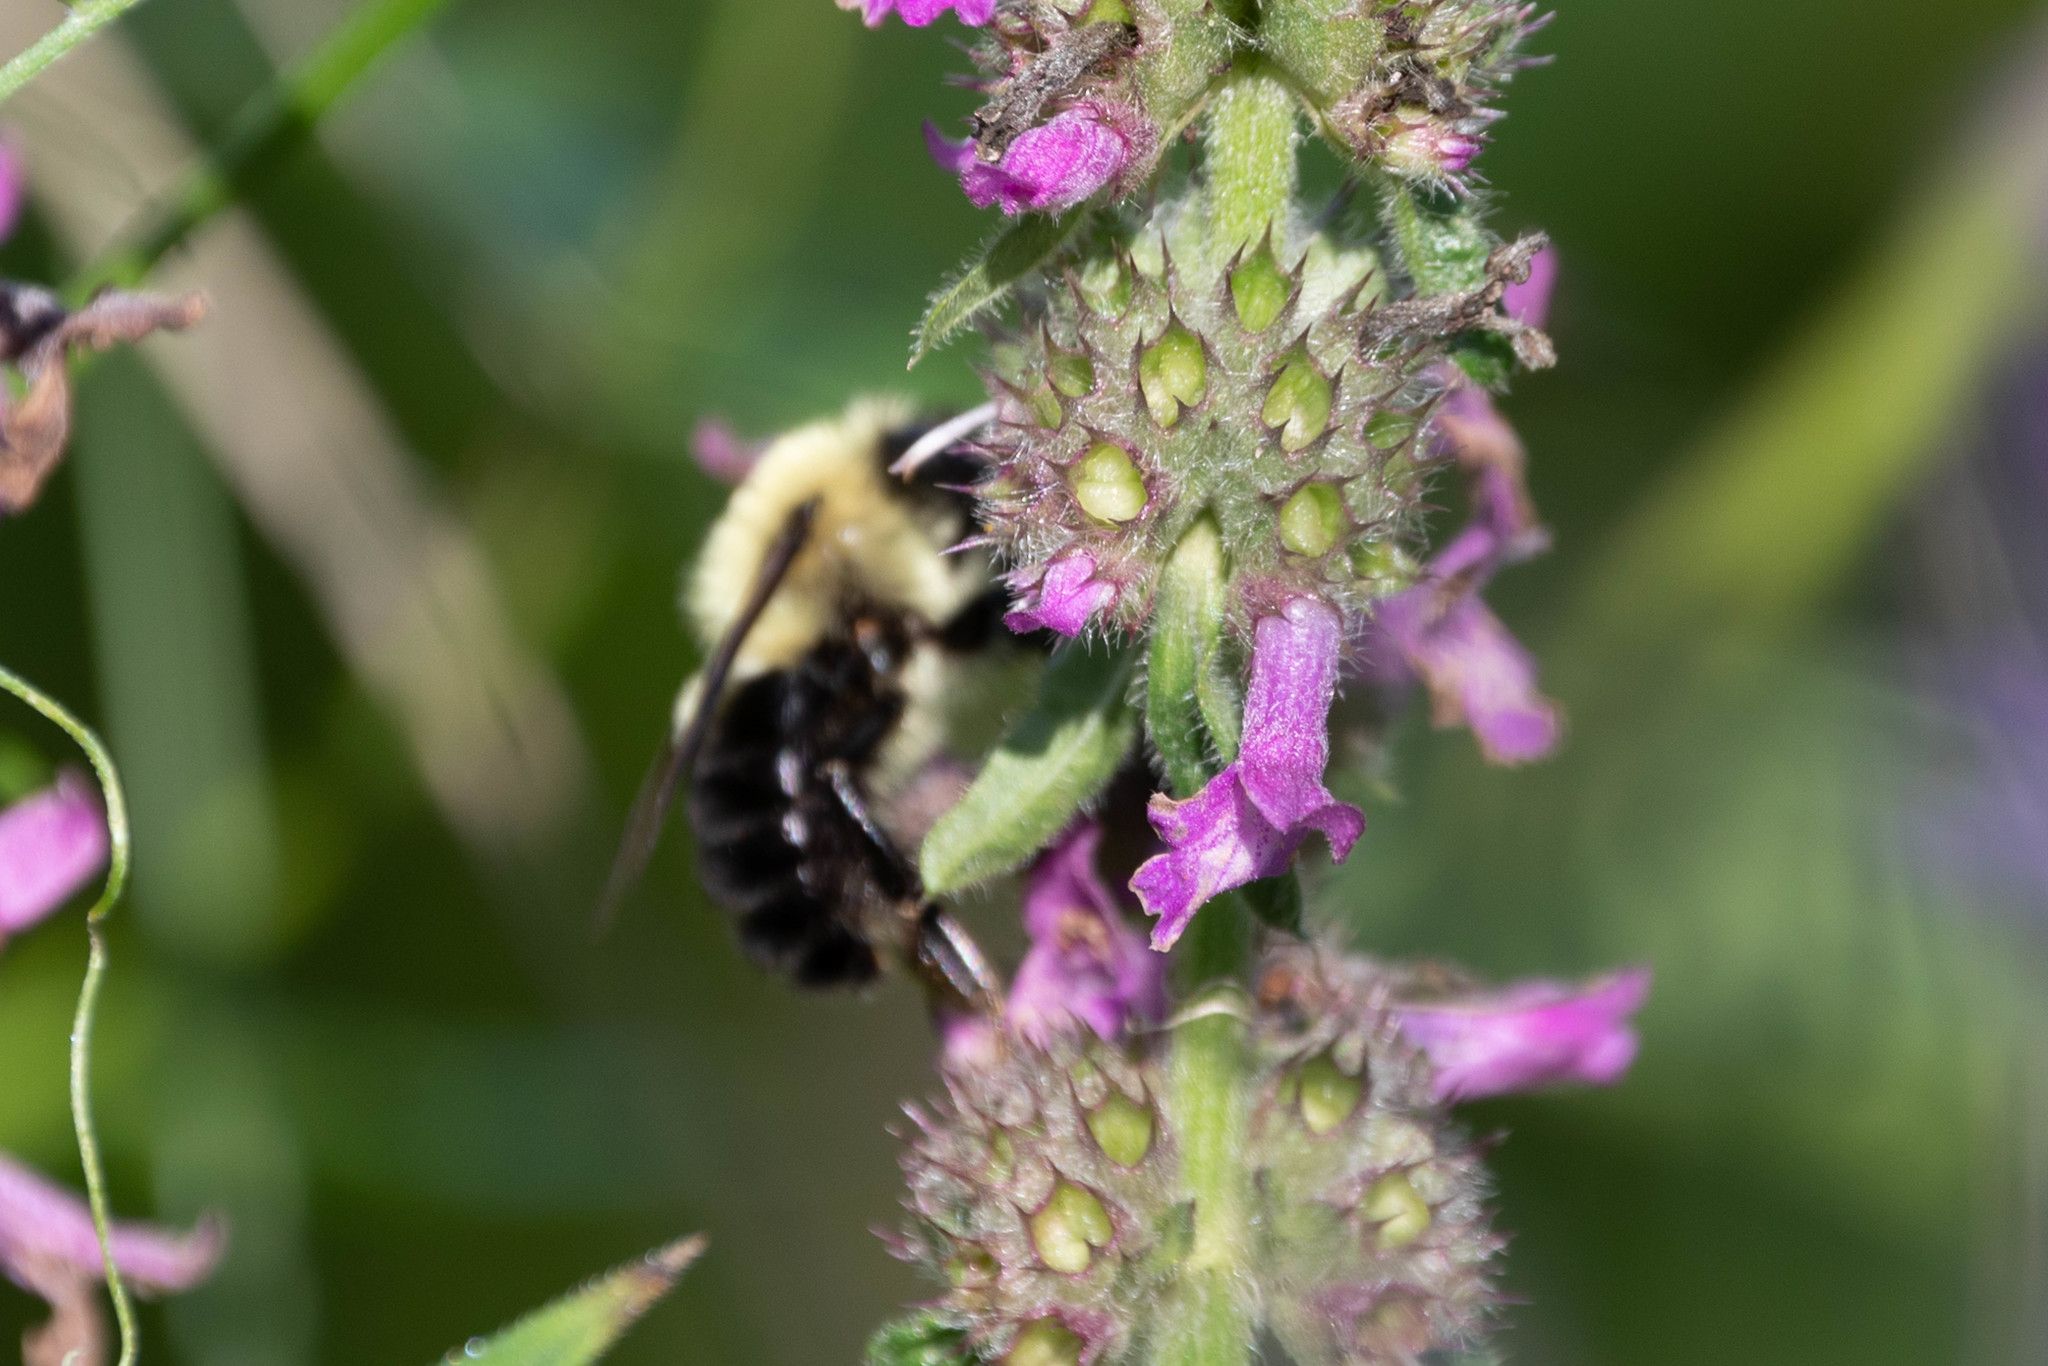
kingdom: Animalia
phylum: Arthropoda
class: Insecta
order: Hymenoptera
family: Apidae
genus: Bombus
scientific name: Bombus bimaculatus
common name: Two-spotted bumble bee
